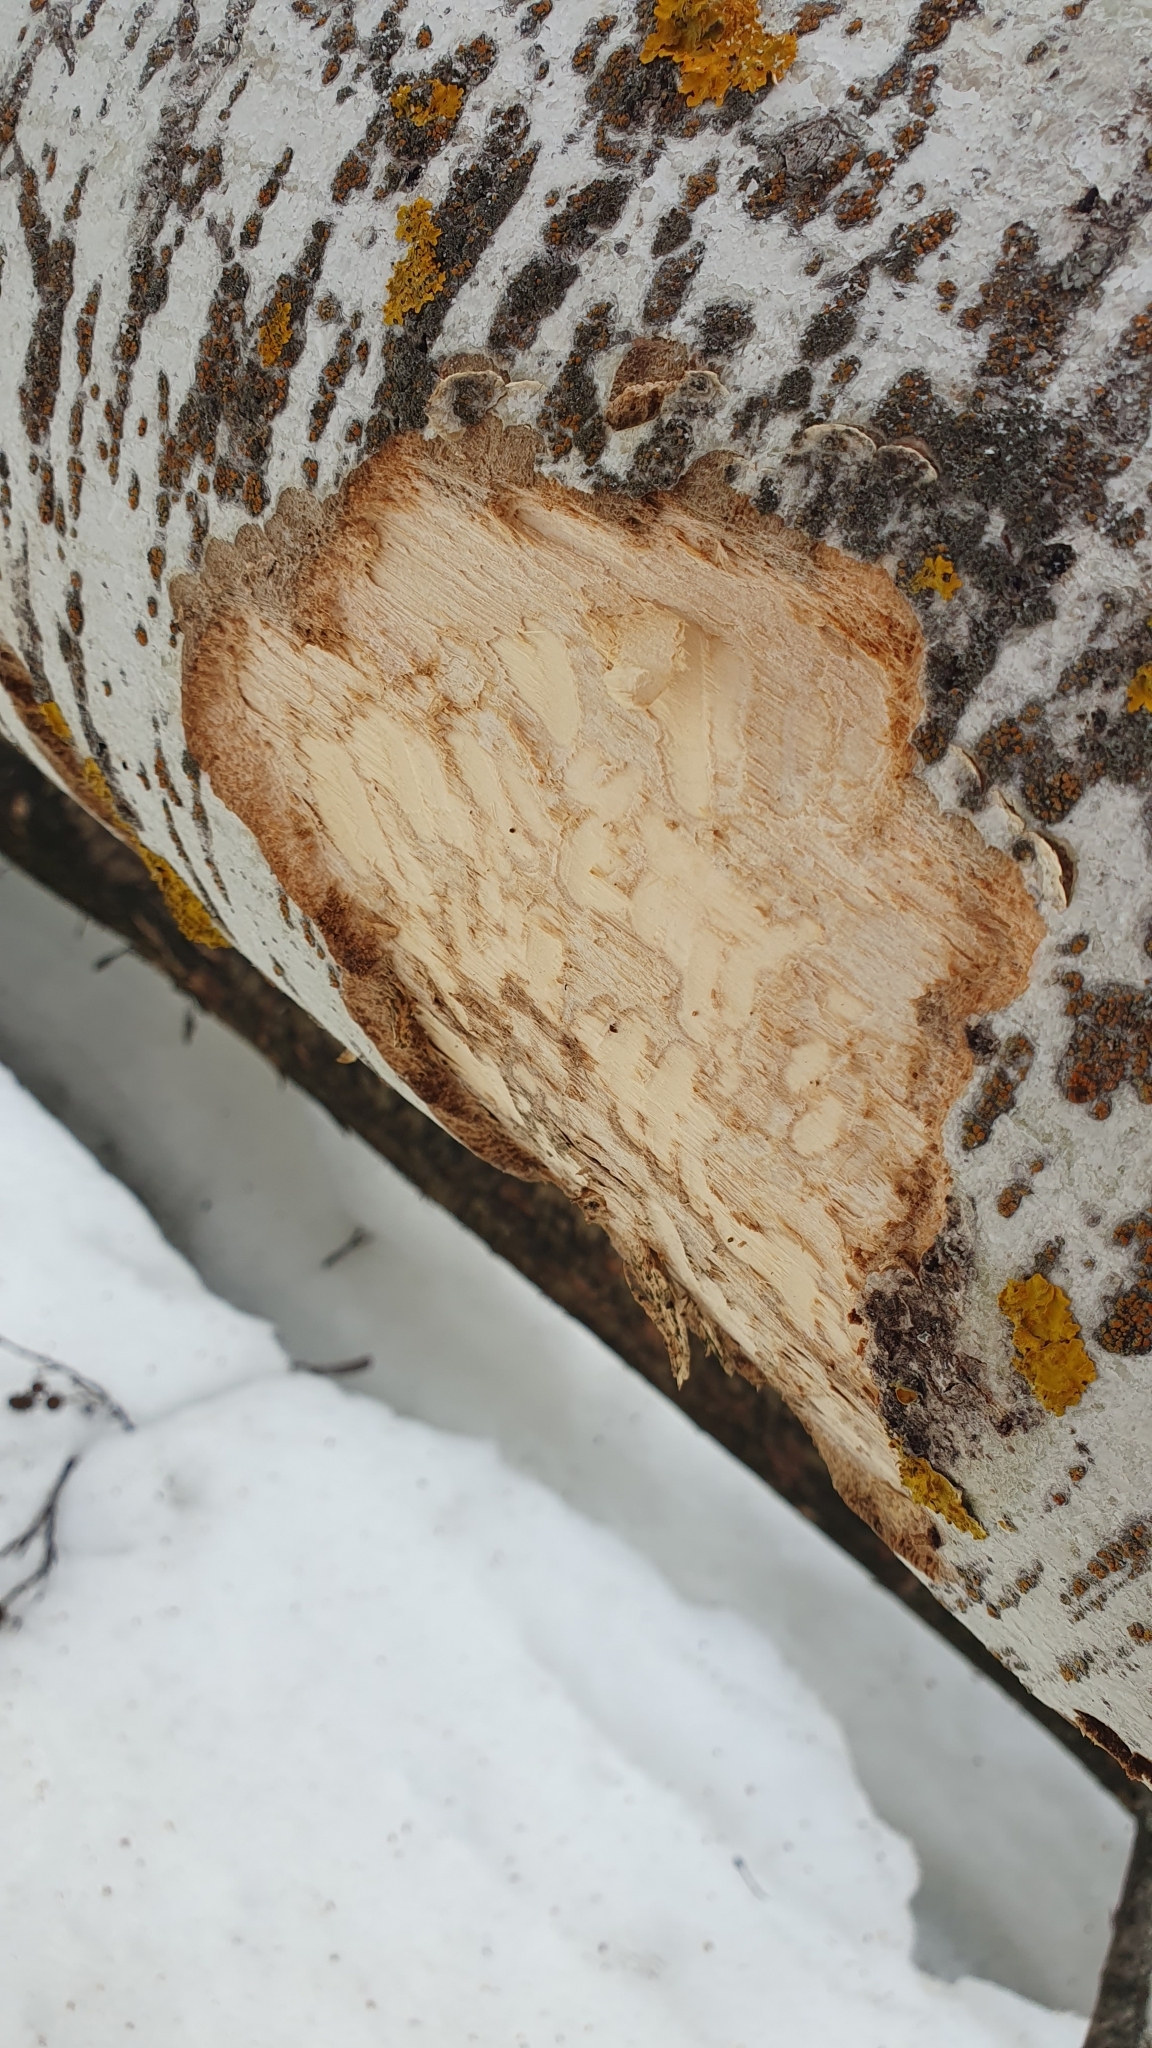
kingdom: Animalia
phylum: Chordata
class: Mammalia
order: Rodentia
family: Castoridae
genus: Castor
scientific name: Castor fiber
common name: Eurasian beaver
